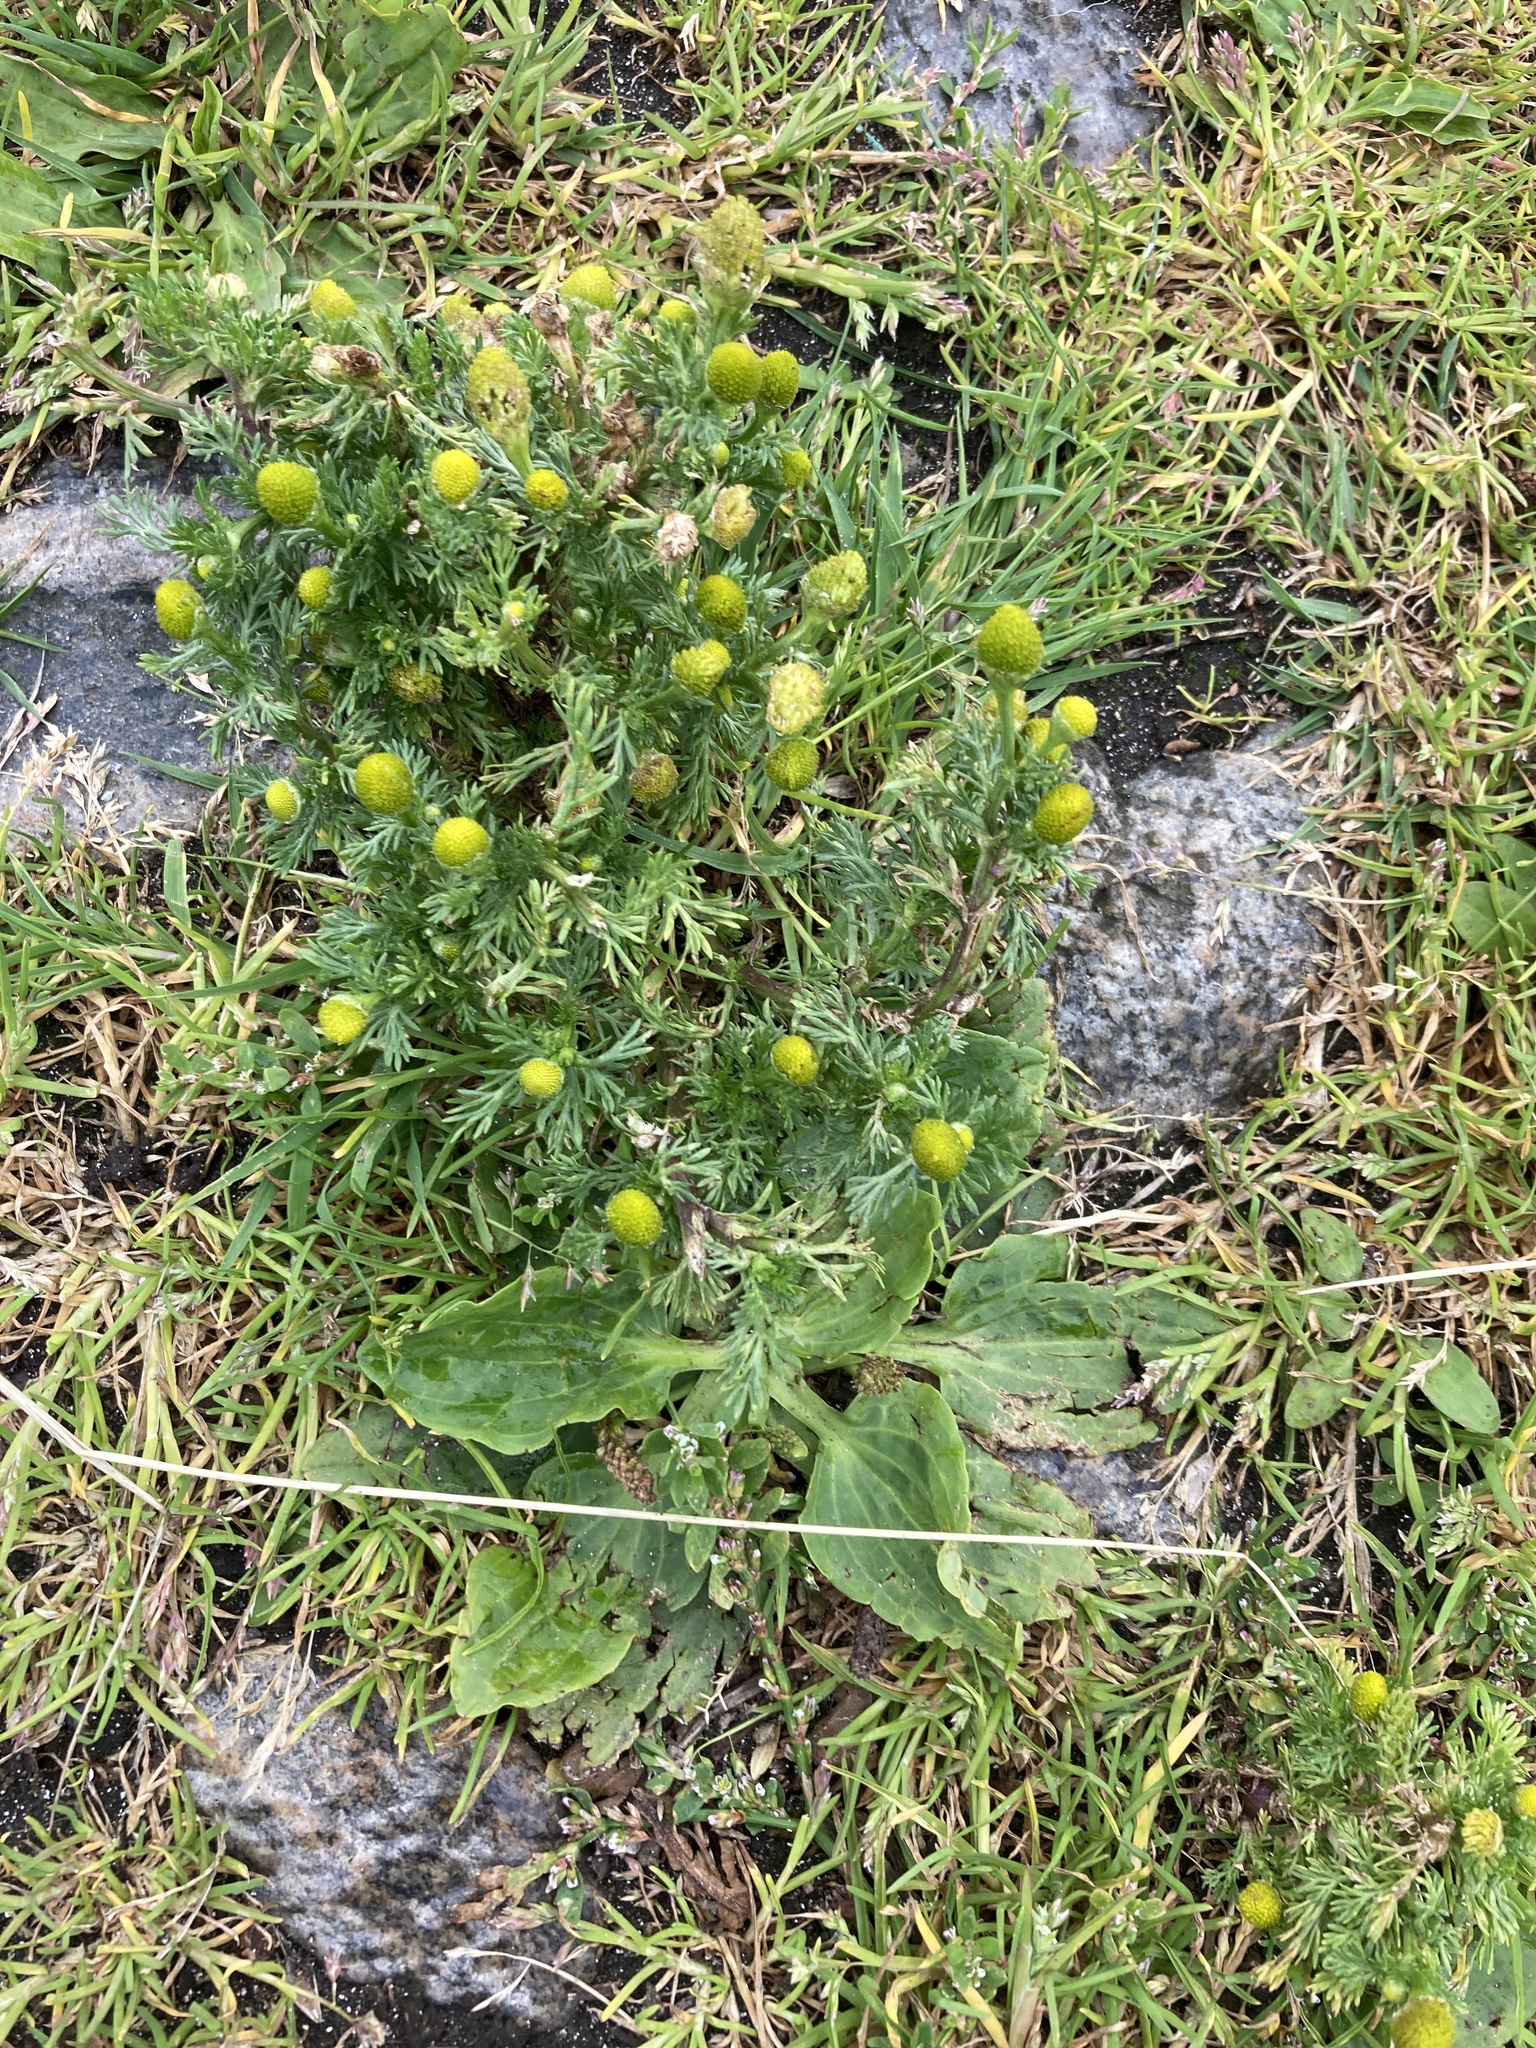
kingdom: Plantae
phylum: Tracheophyta
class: Magnoliopsida
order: Asterales
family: Asteraceae
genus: Matricaria
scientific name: Matricaria discoidea
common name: Disc mayweed
